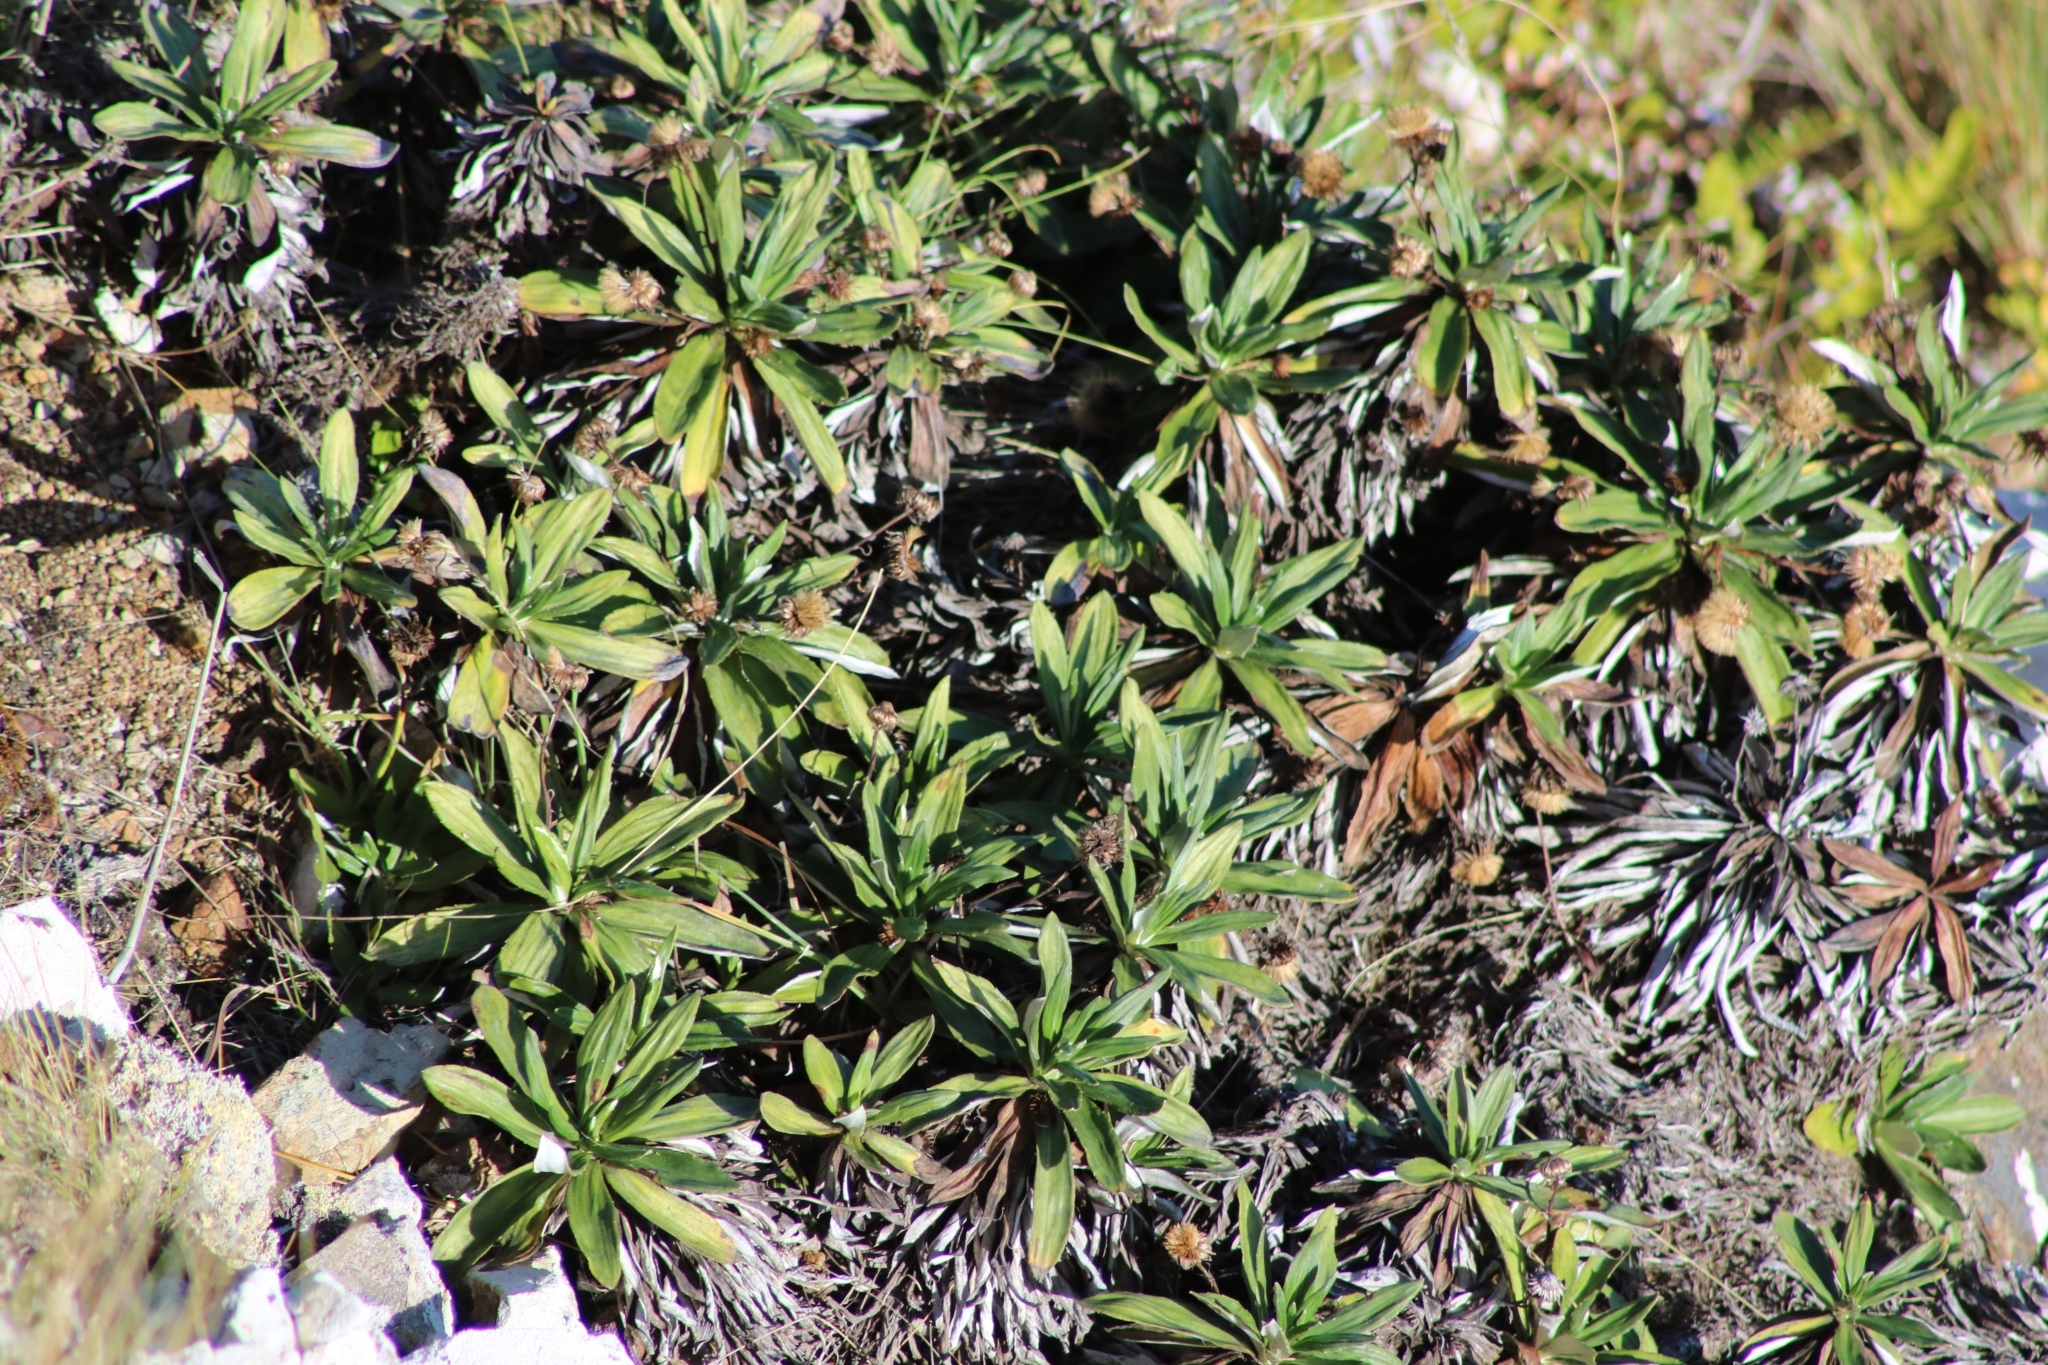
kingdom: Plantae
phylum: Tracheophyta
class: Magnoliopsida
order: Asterales
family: Asteraceae
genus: Celmisia
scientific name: Celmisia lindsayi
